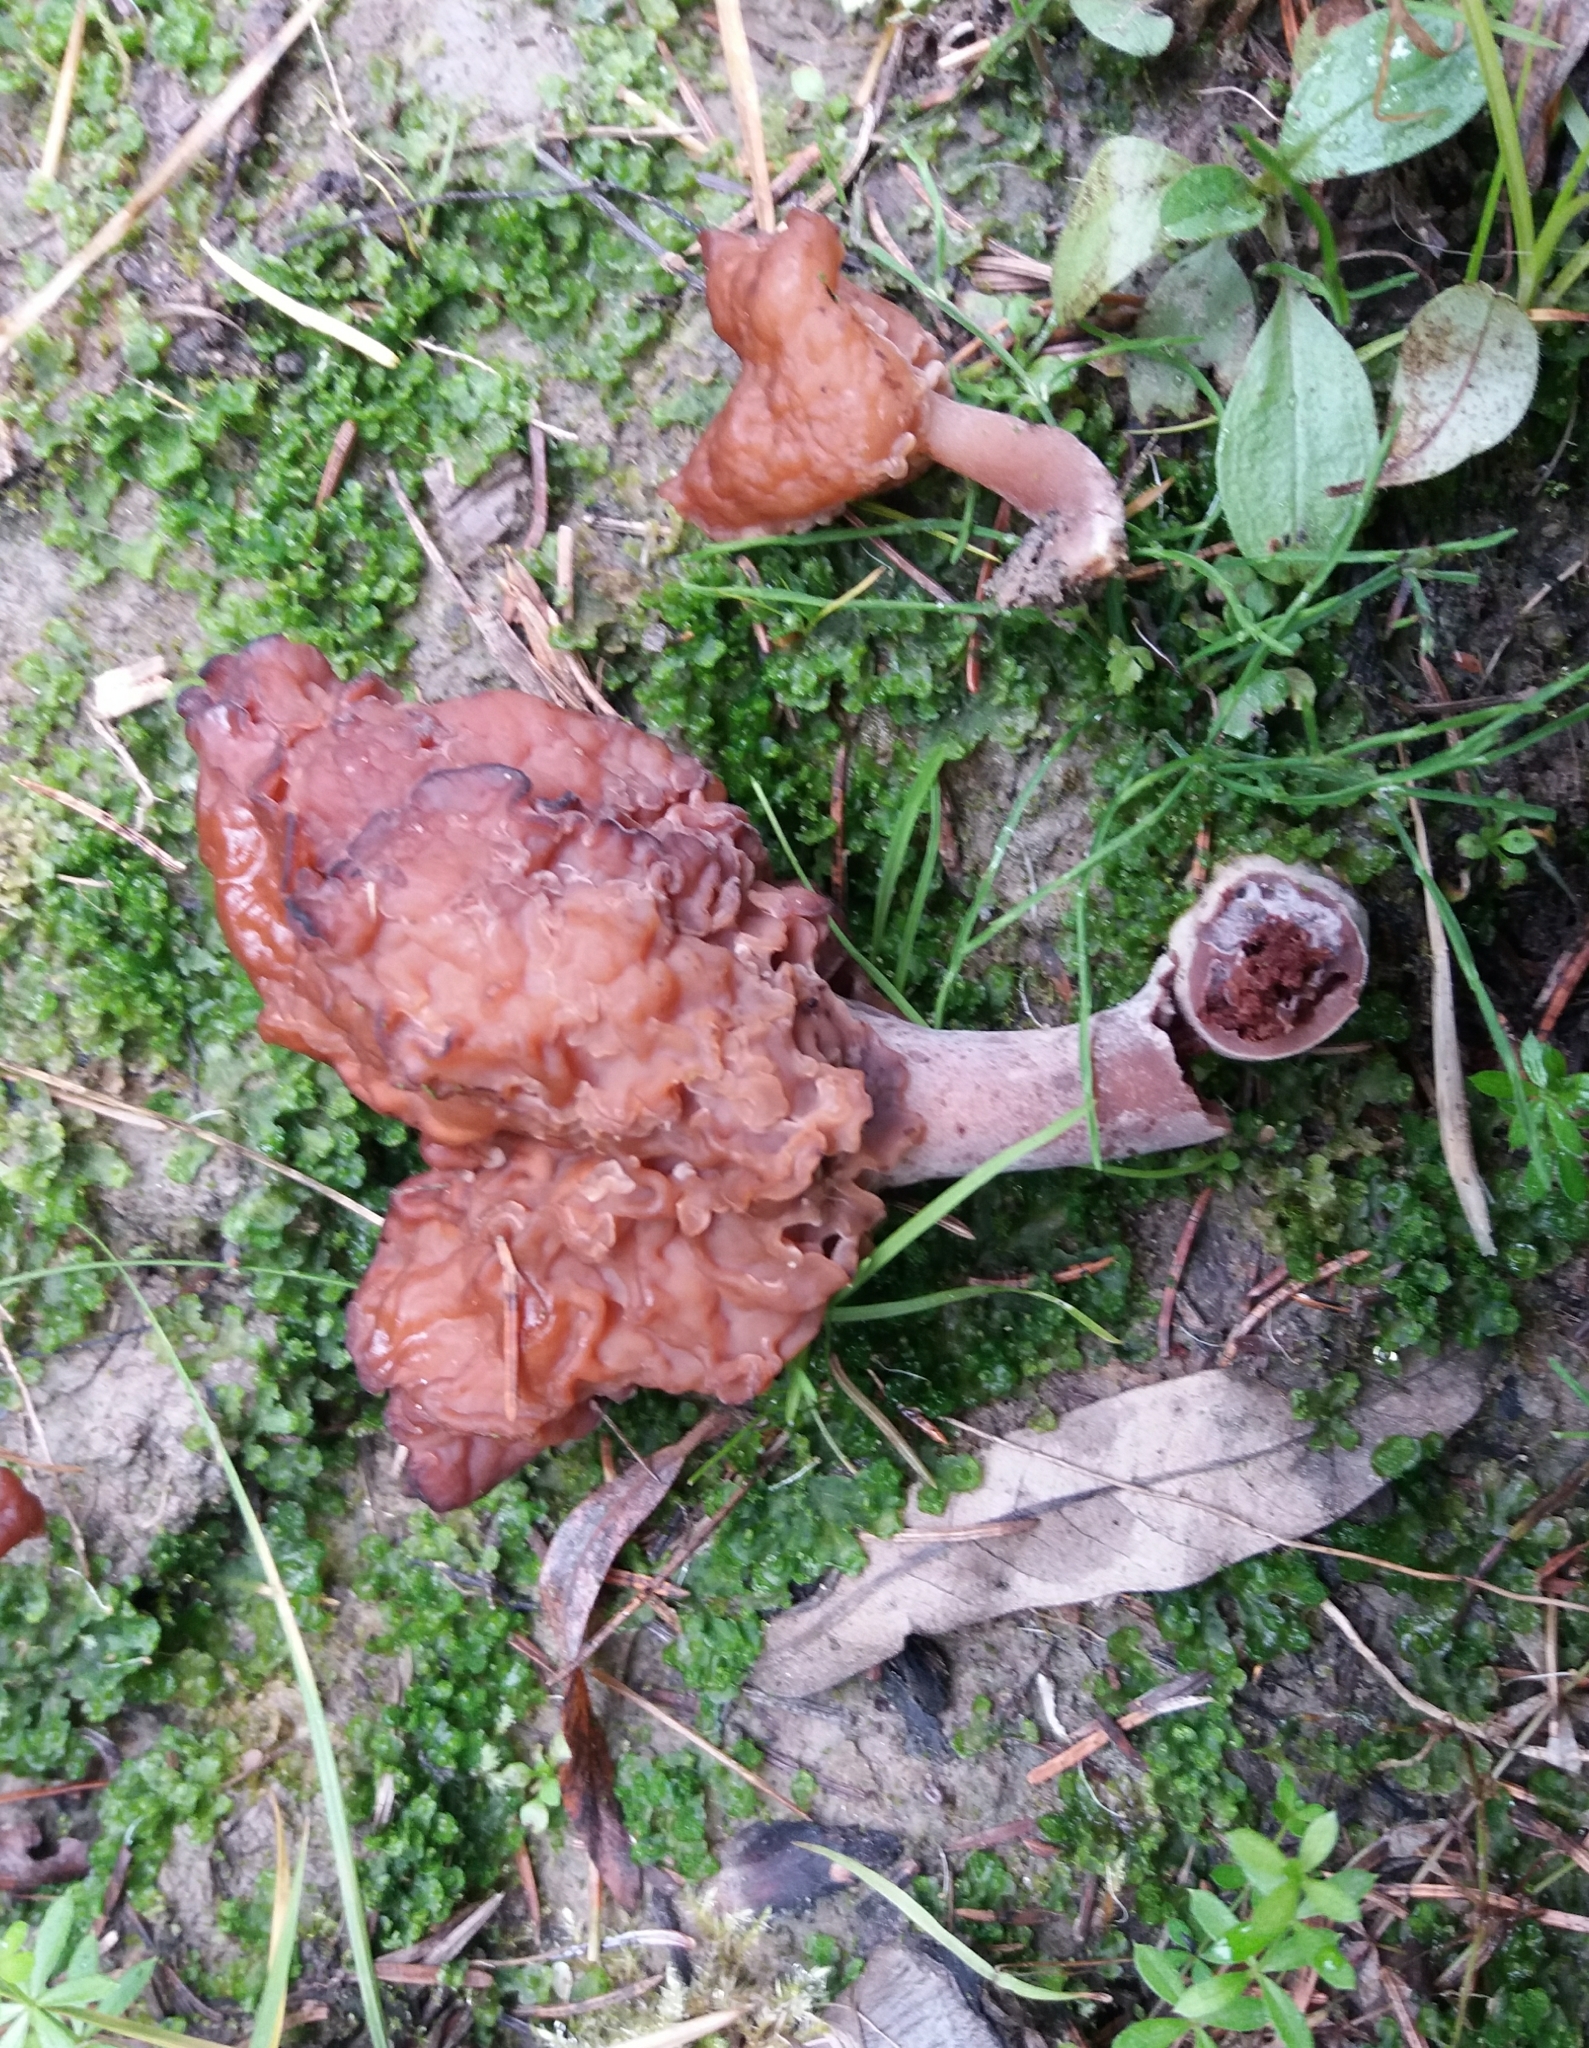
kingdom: Fungi
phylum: Ascomycota
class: Pezizomycetes
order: Pezizales
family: Discinaceae
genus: Gyromitra
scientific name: Gyromitra infula
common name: Pouched false morel
